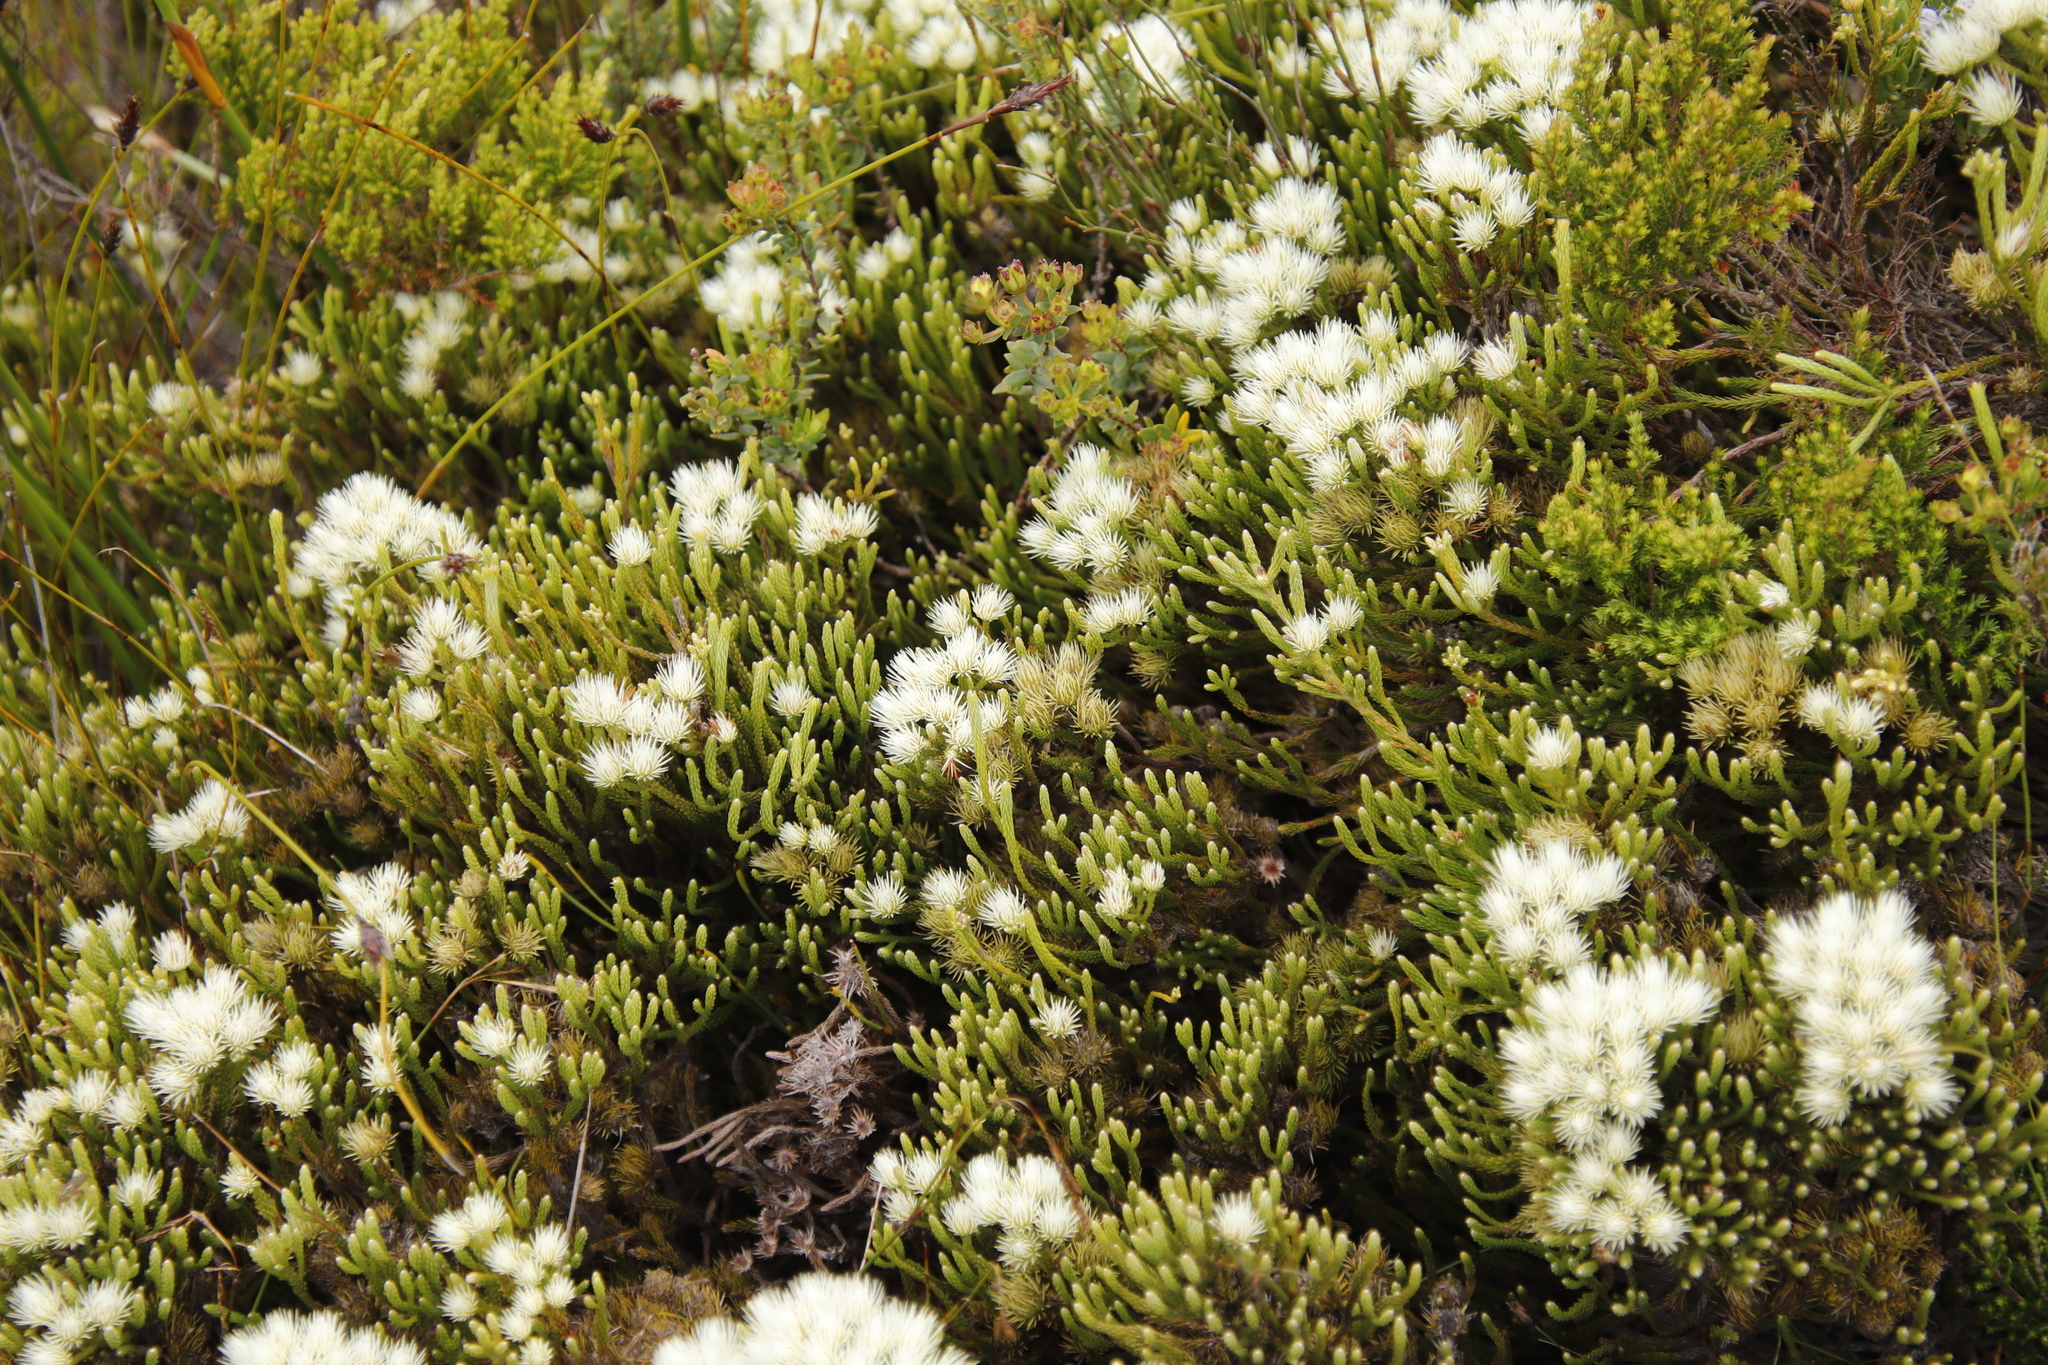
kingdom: Plantae
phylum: Tracheophyta
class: Magnoliopsida
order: Bruniales
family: Bruniaceae
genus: Brunia
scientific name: Brunia paleacea
